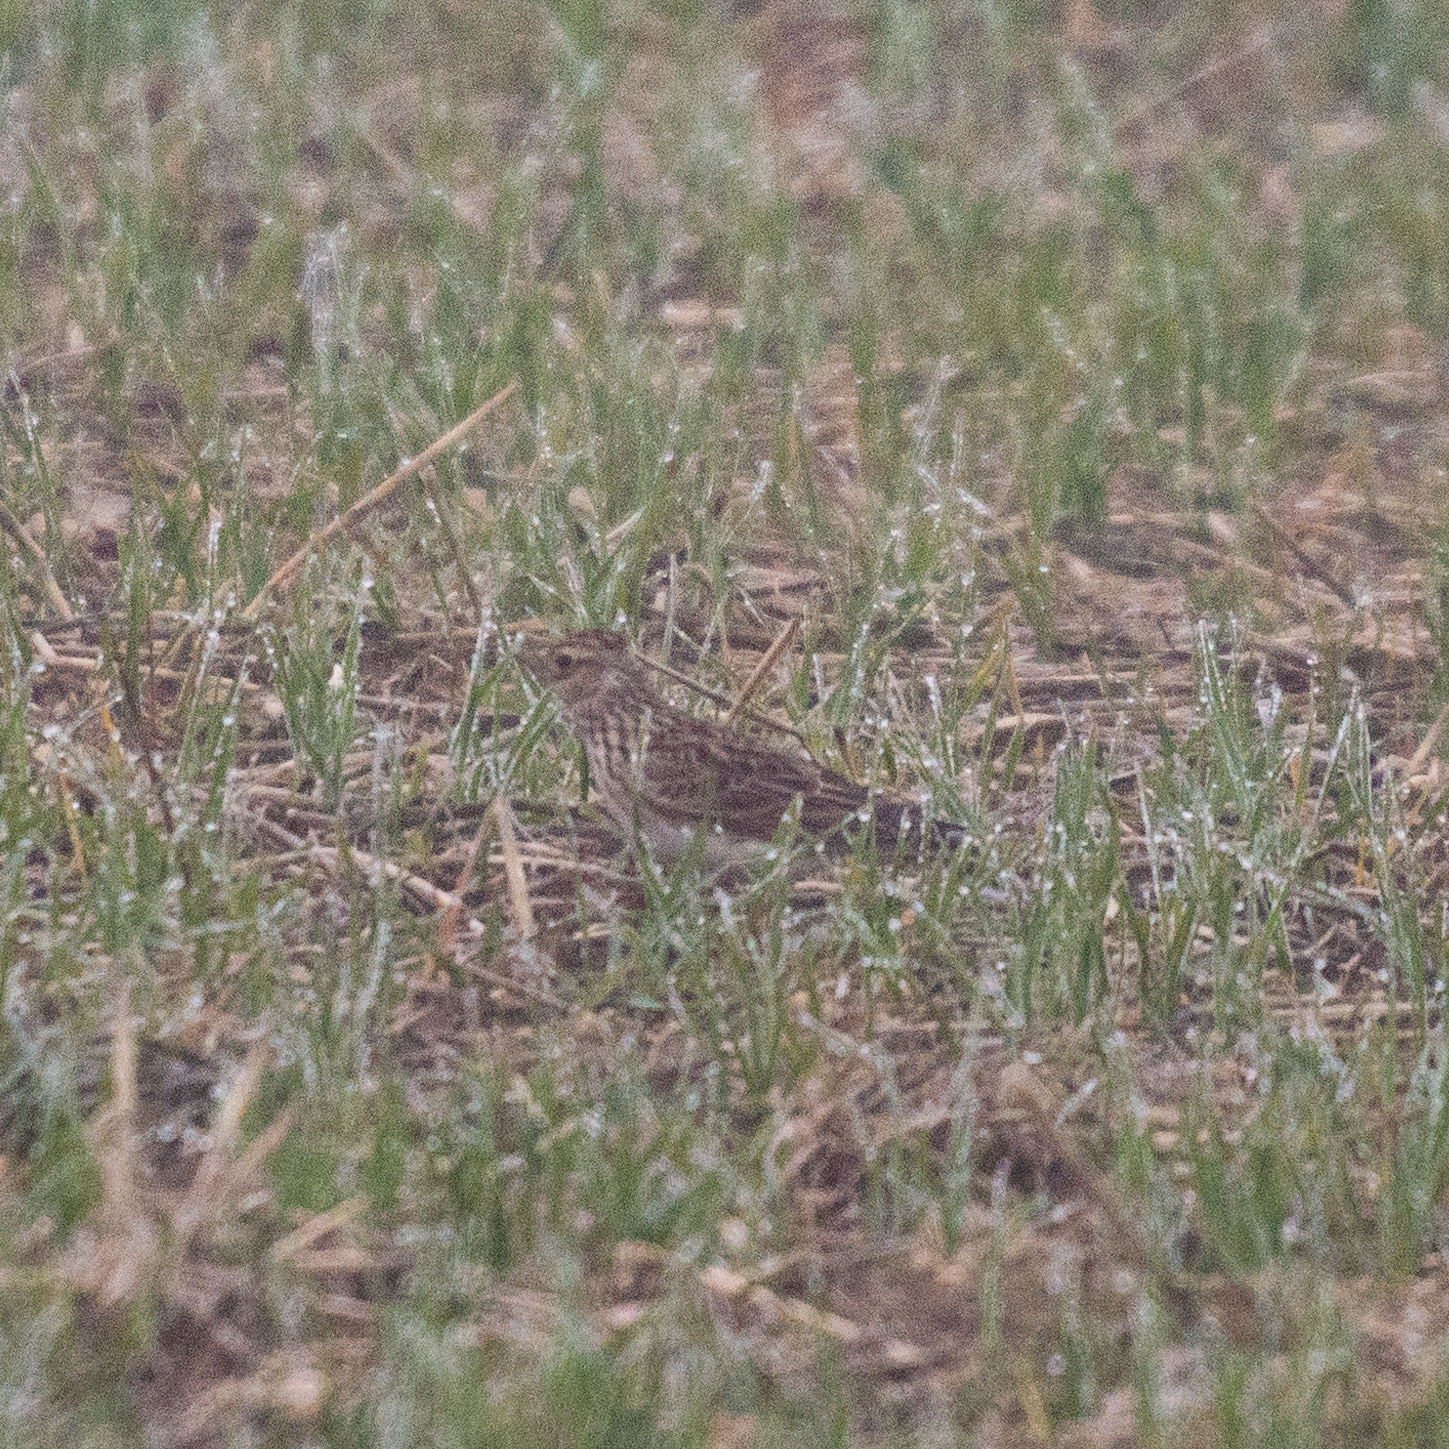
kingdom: Animalia
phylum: Chordata
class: Aves
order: Passeriformes
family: Alaudidae
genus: Alauda
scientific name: Alauda arvensis
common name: Eurasian skylark
